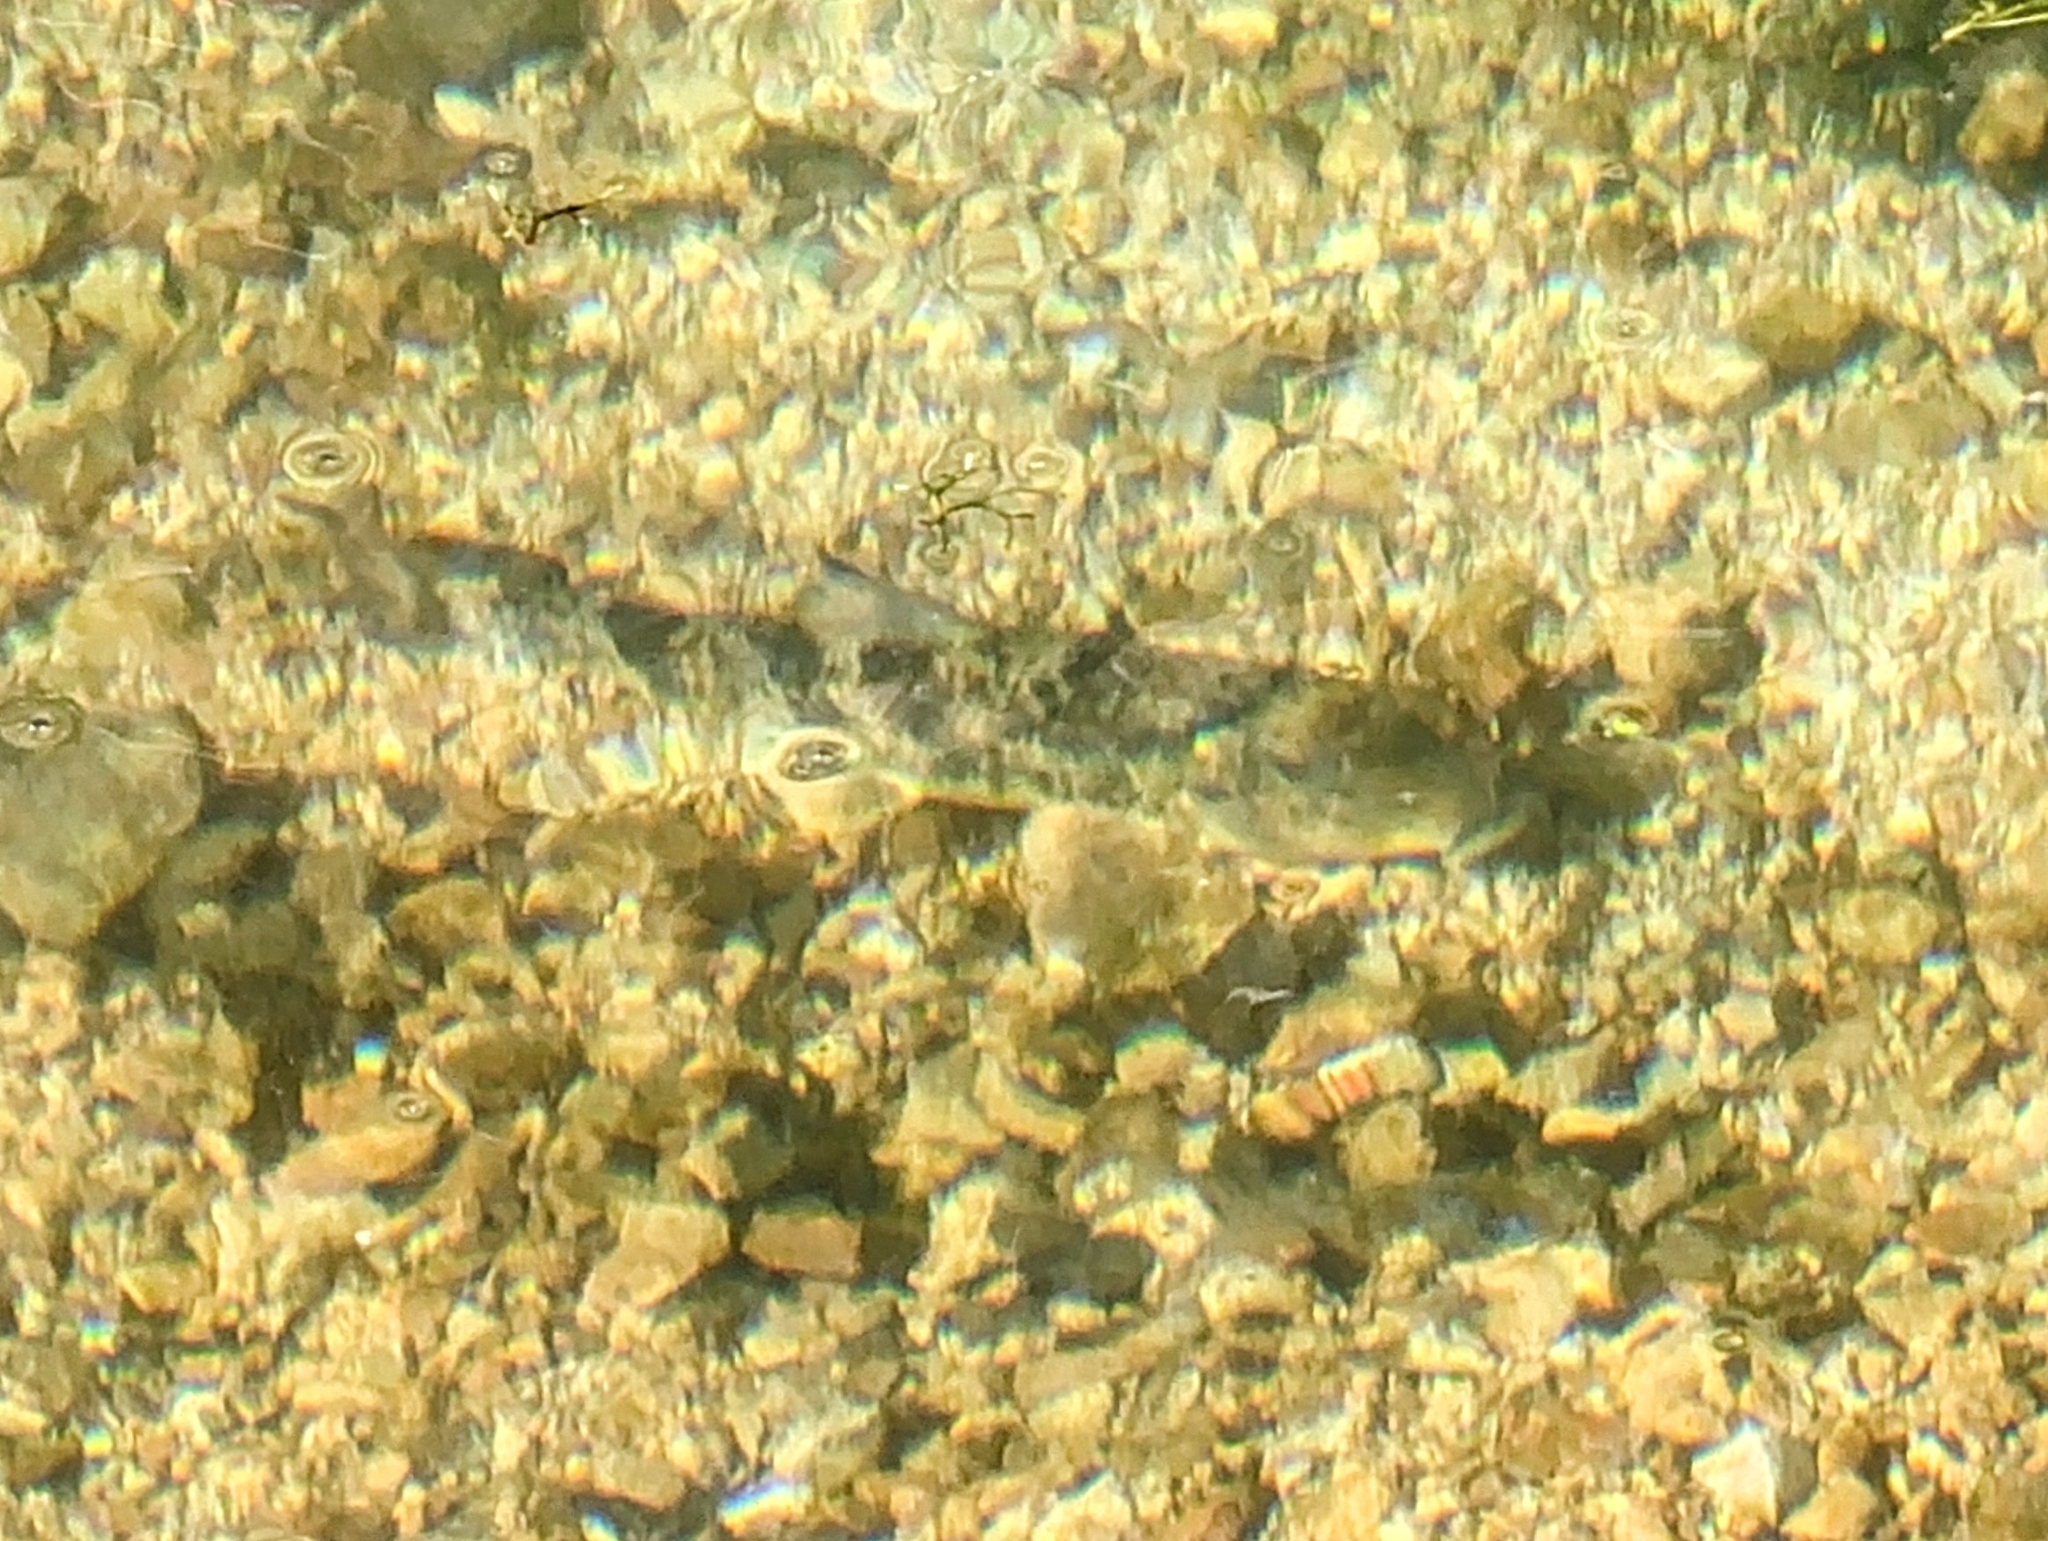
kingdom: Animalia
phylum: Chordata
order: Cypriniformes
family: Catostomidae
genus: Hypentelium
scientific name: Hypentelium nigricans
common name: Northern hog sucker
